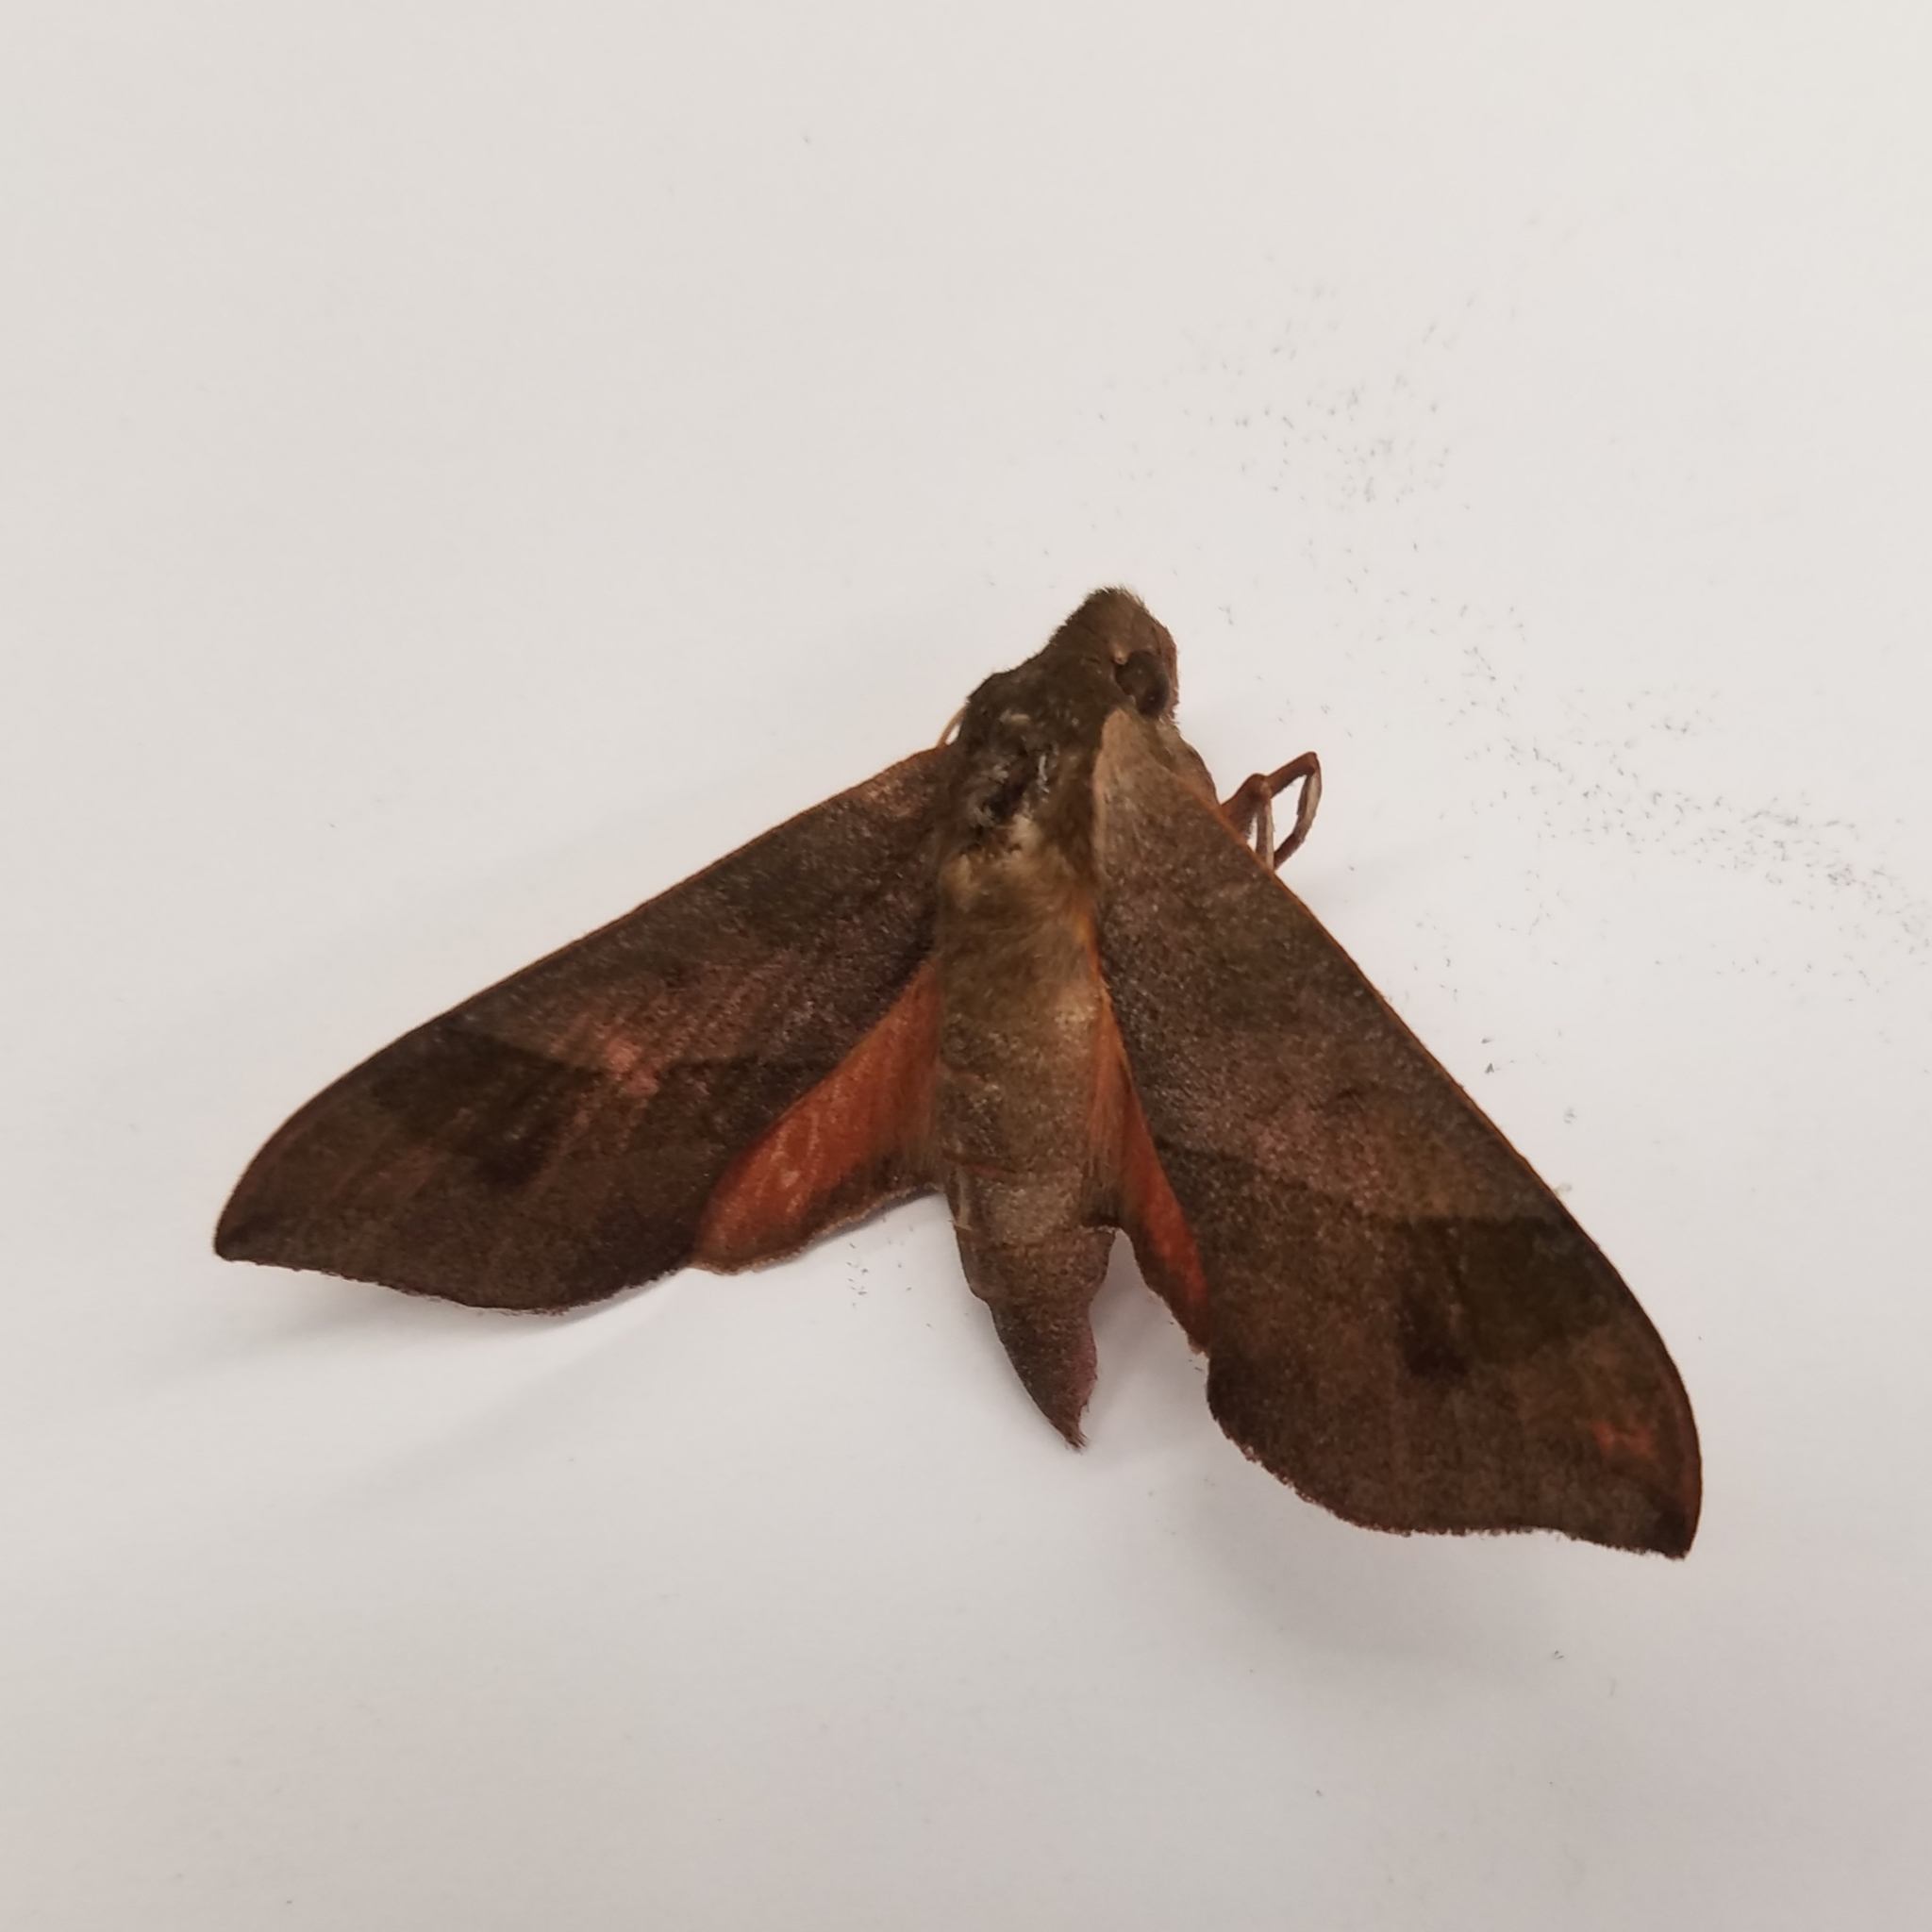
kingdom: Animalia
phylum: Arthropoda
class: Insecta
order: Lepidoptera
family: Sphingidae
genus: Darapsa
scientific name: Darapsa myron
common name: Hog sphinx
